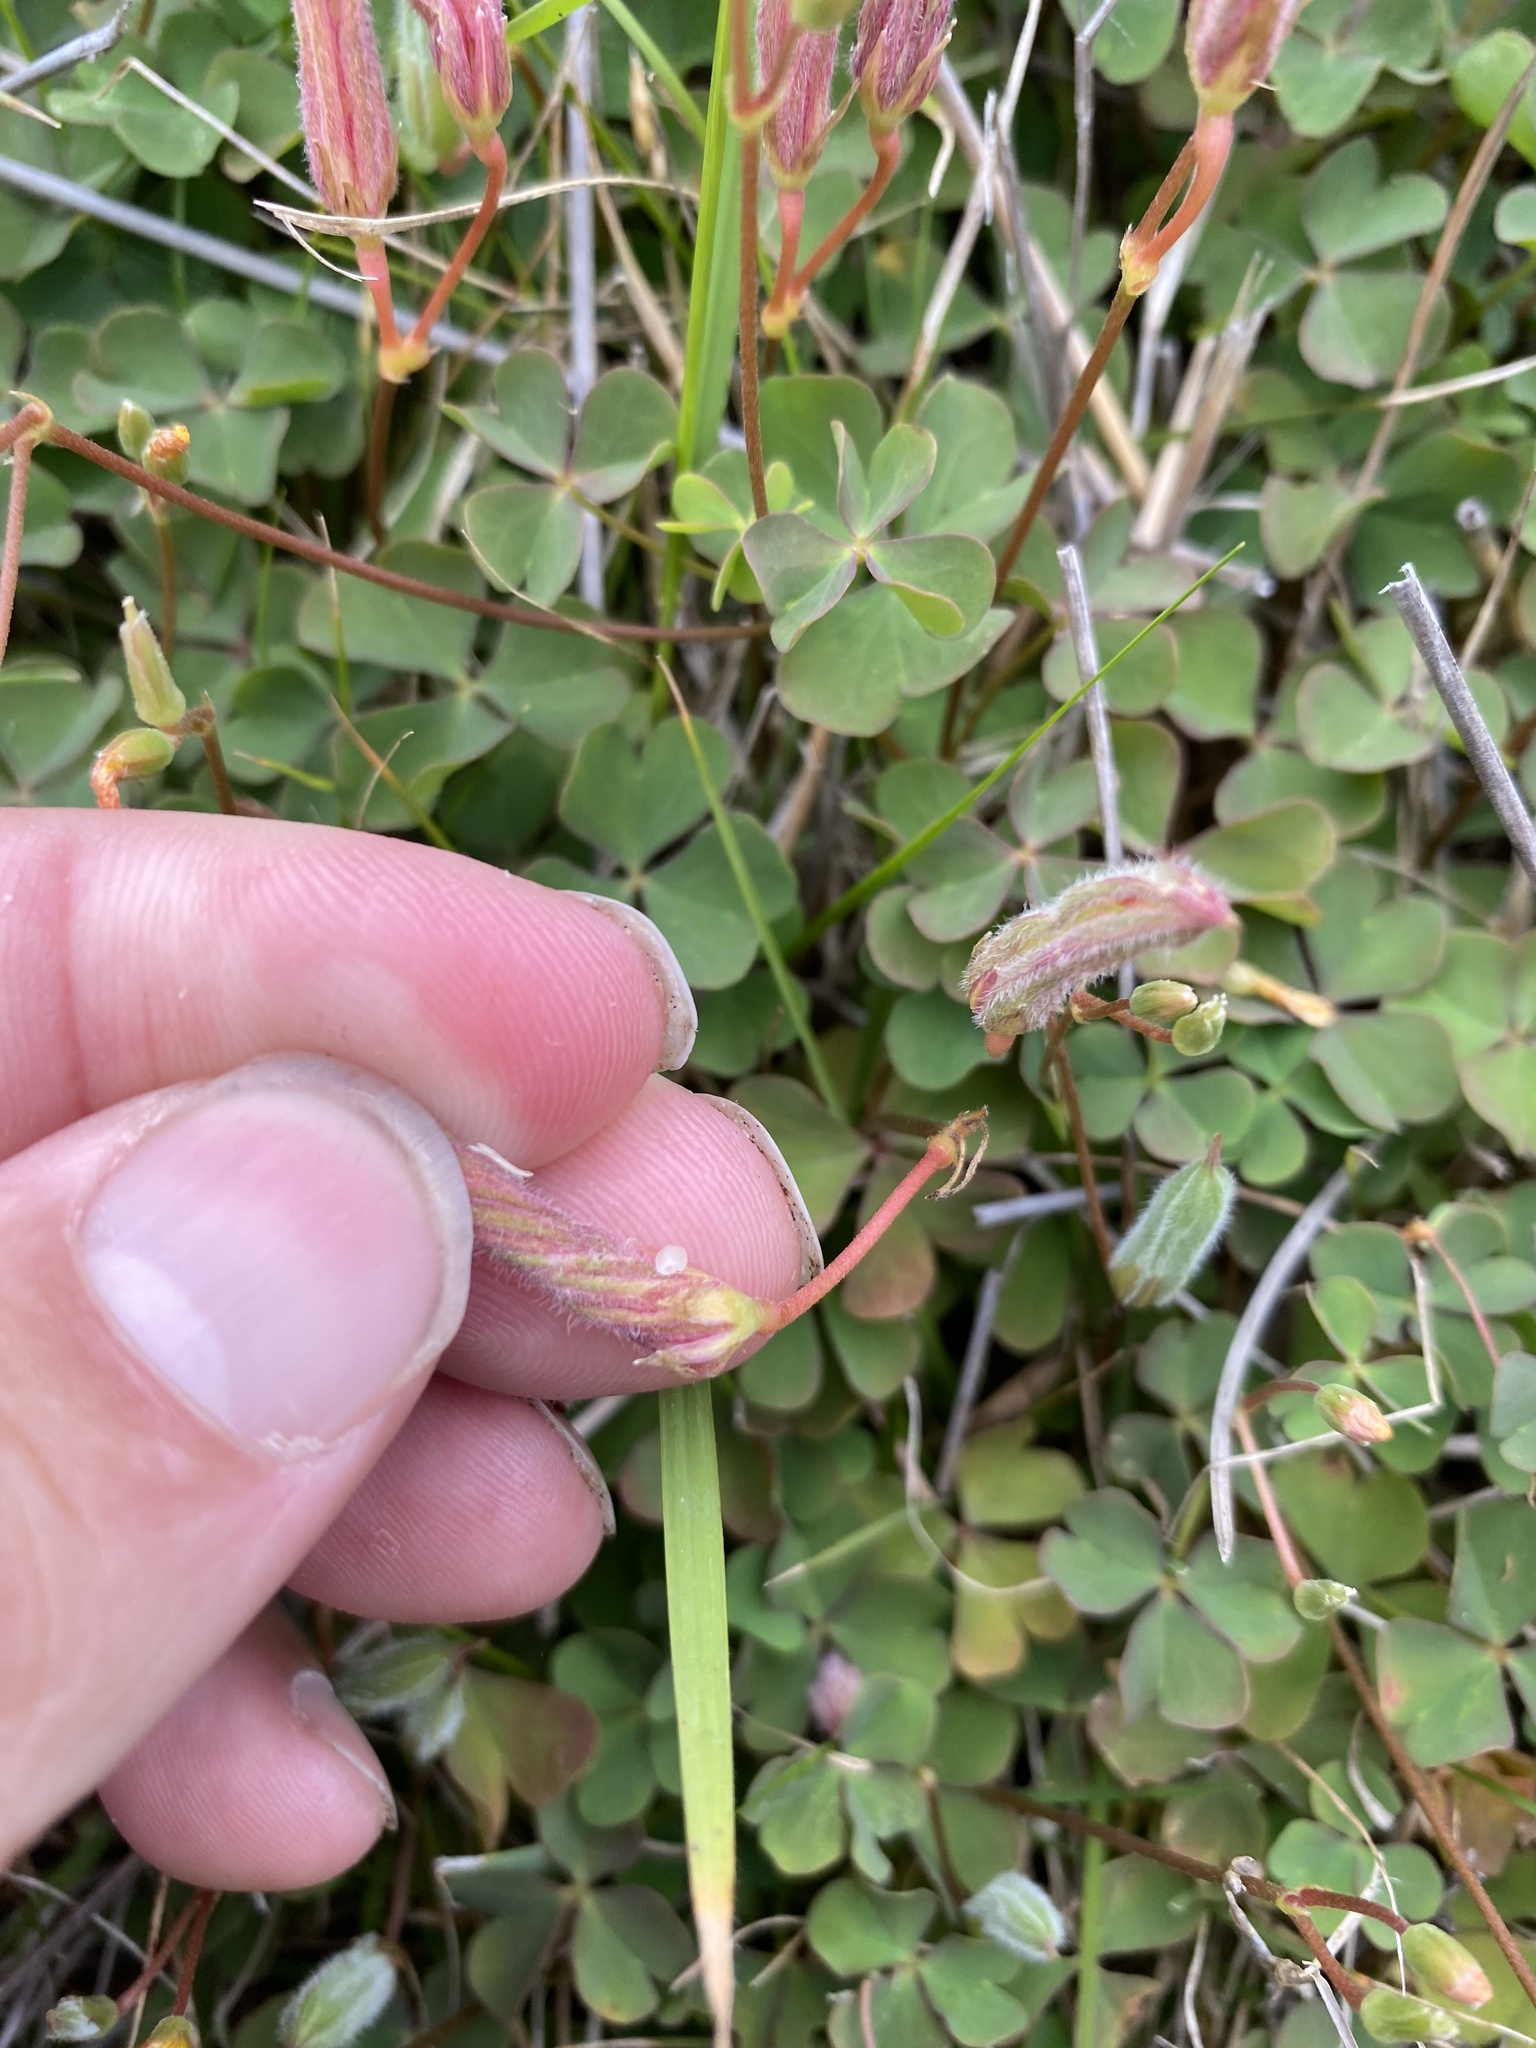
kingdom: Plantae
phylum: Tracheophyta
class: Magnoliopsida
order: Oxalidales
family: Oxalidaceae
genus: Oxalis
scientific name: Oxalis rubens
